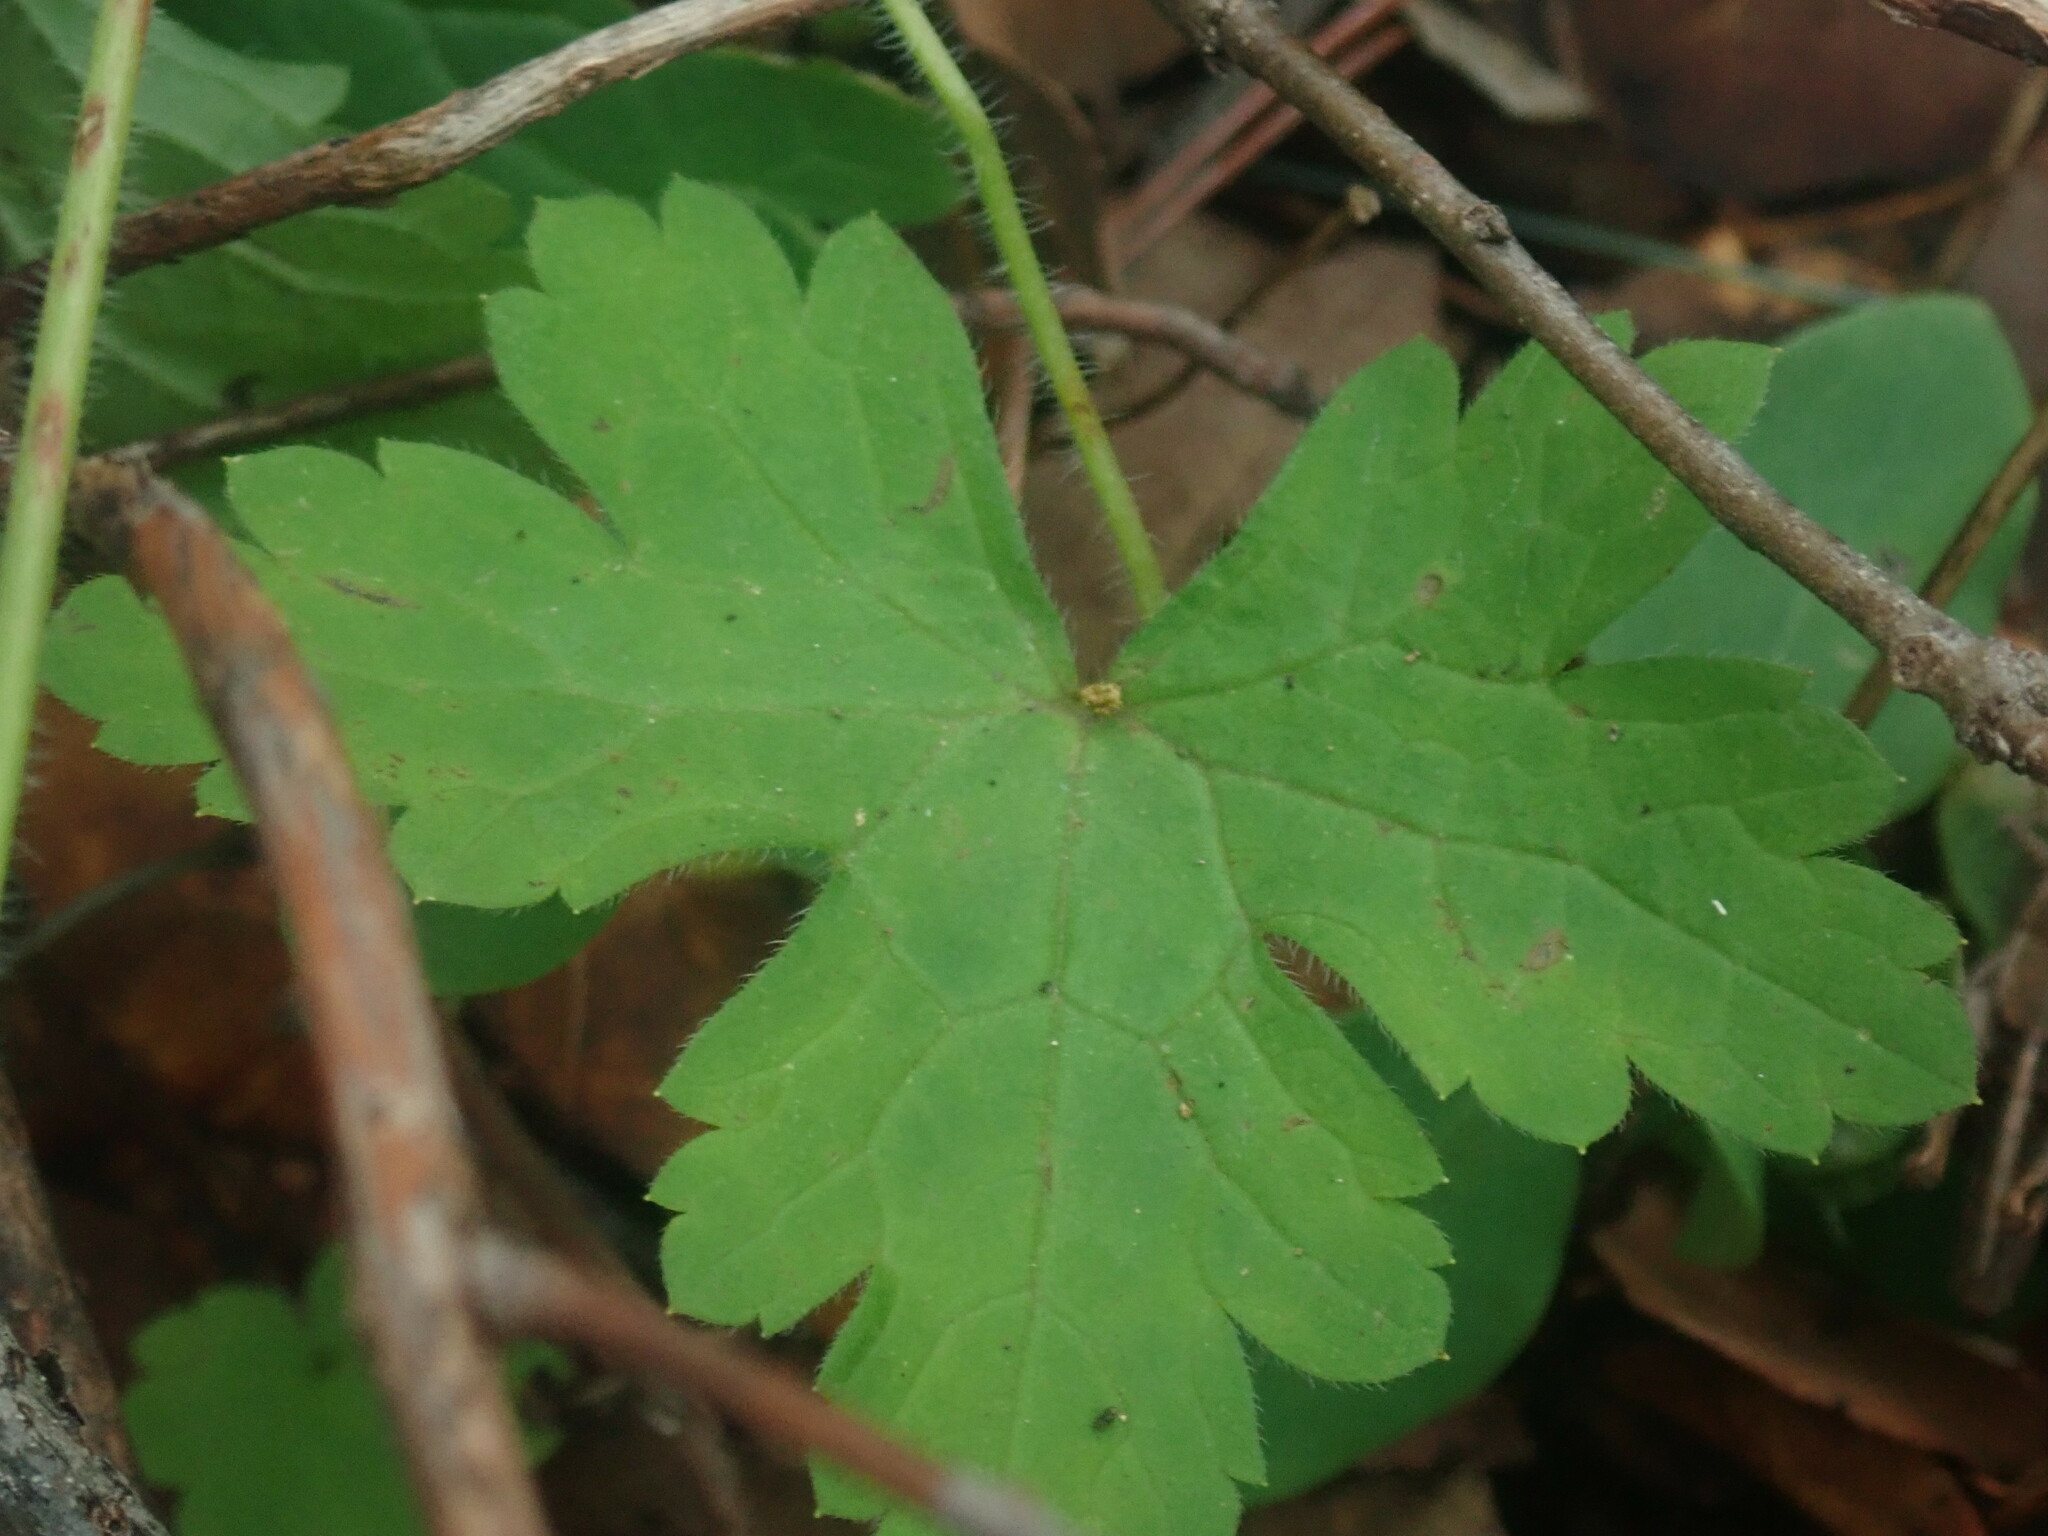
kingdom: Plantae
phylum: Tracheophyta
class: Magnoliopsida
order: Geraniales
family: Geraniaceae
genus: Geranium
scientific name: Geranium wislizeni
